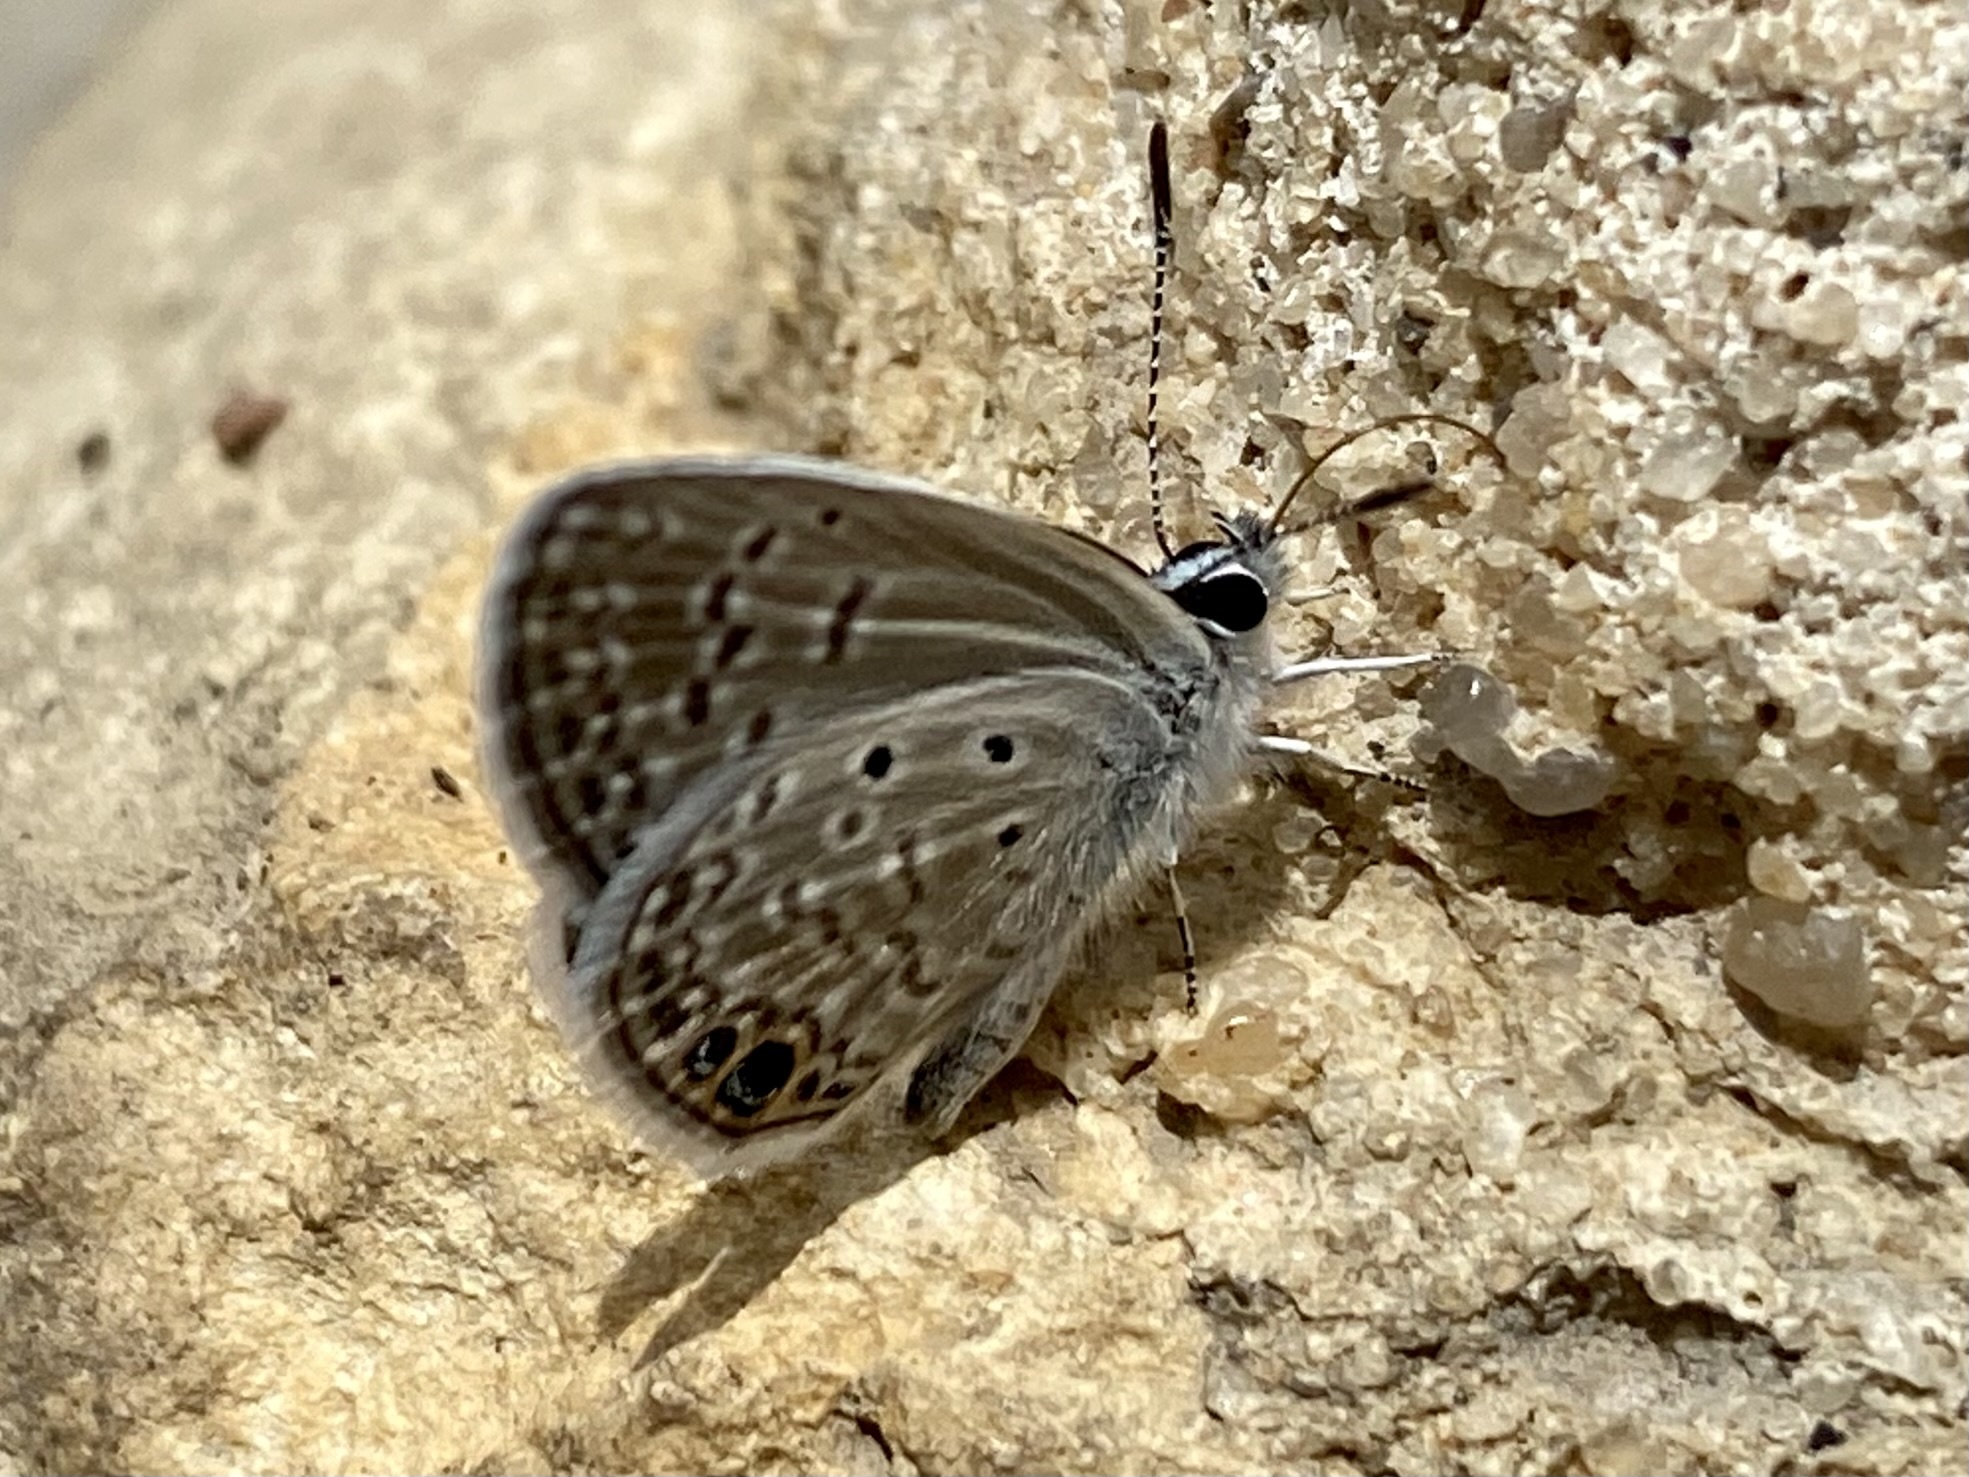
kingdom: Animalia
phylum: Arthropoda
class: Insecta
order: Lepidoptera
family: Lycaenidae
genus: Hemiargus
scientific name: Hemiargus ceraunus
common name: Ceraunus blue
